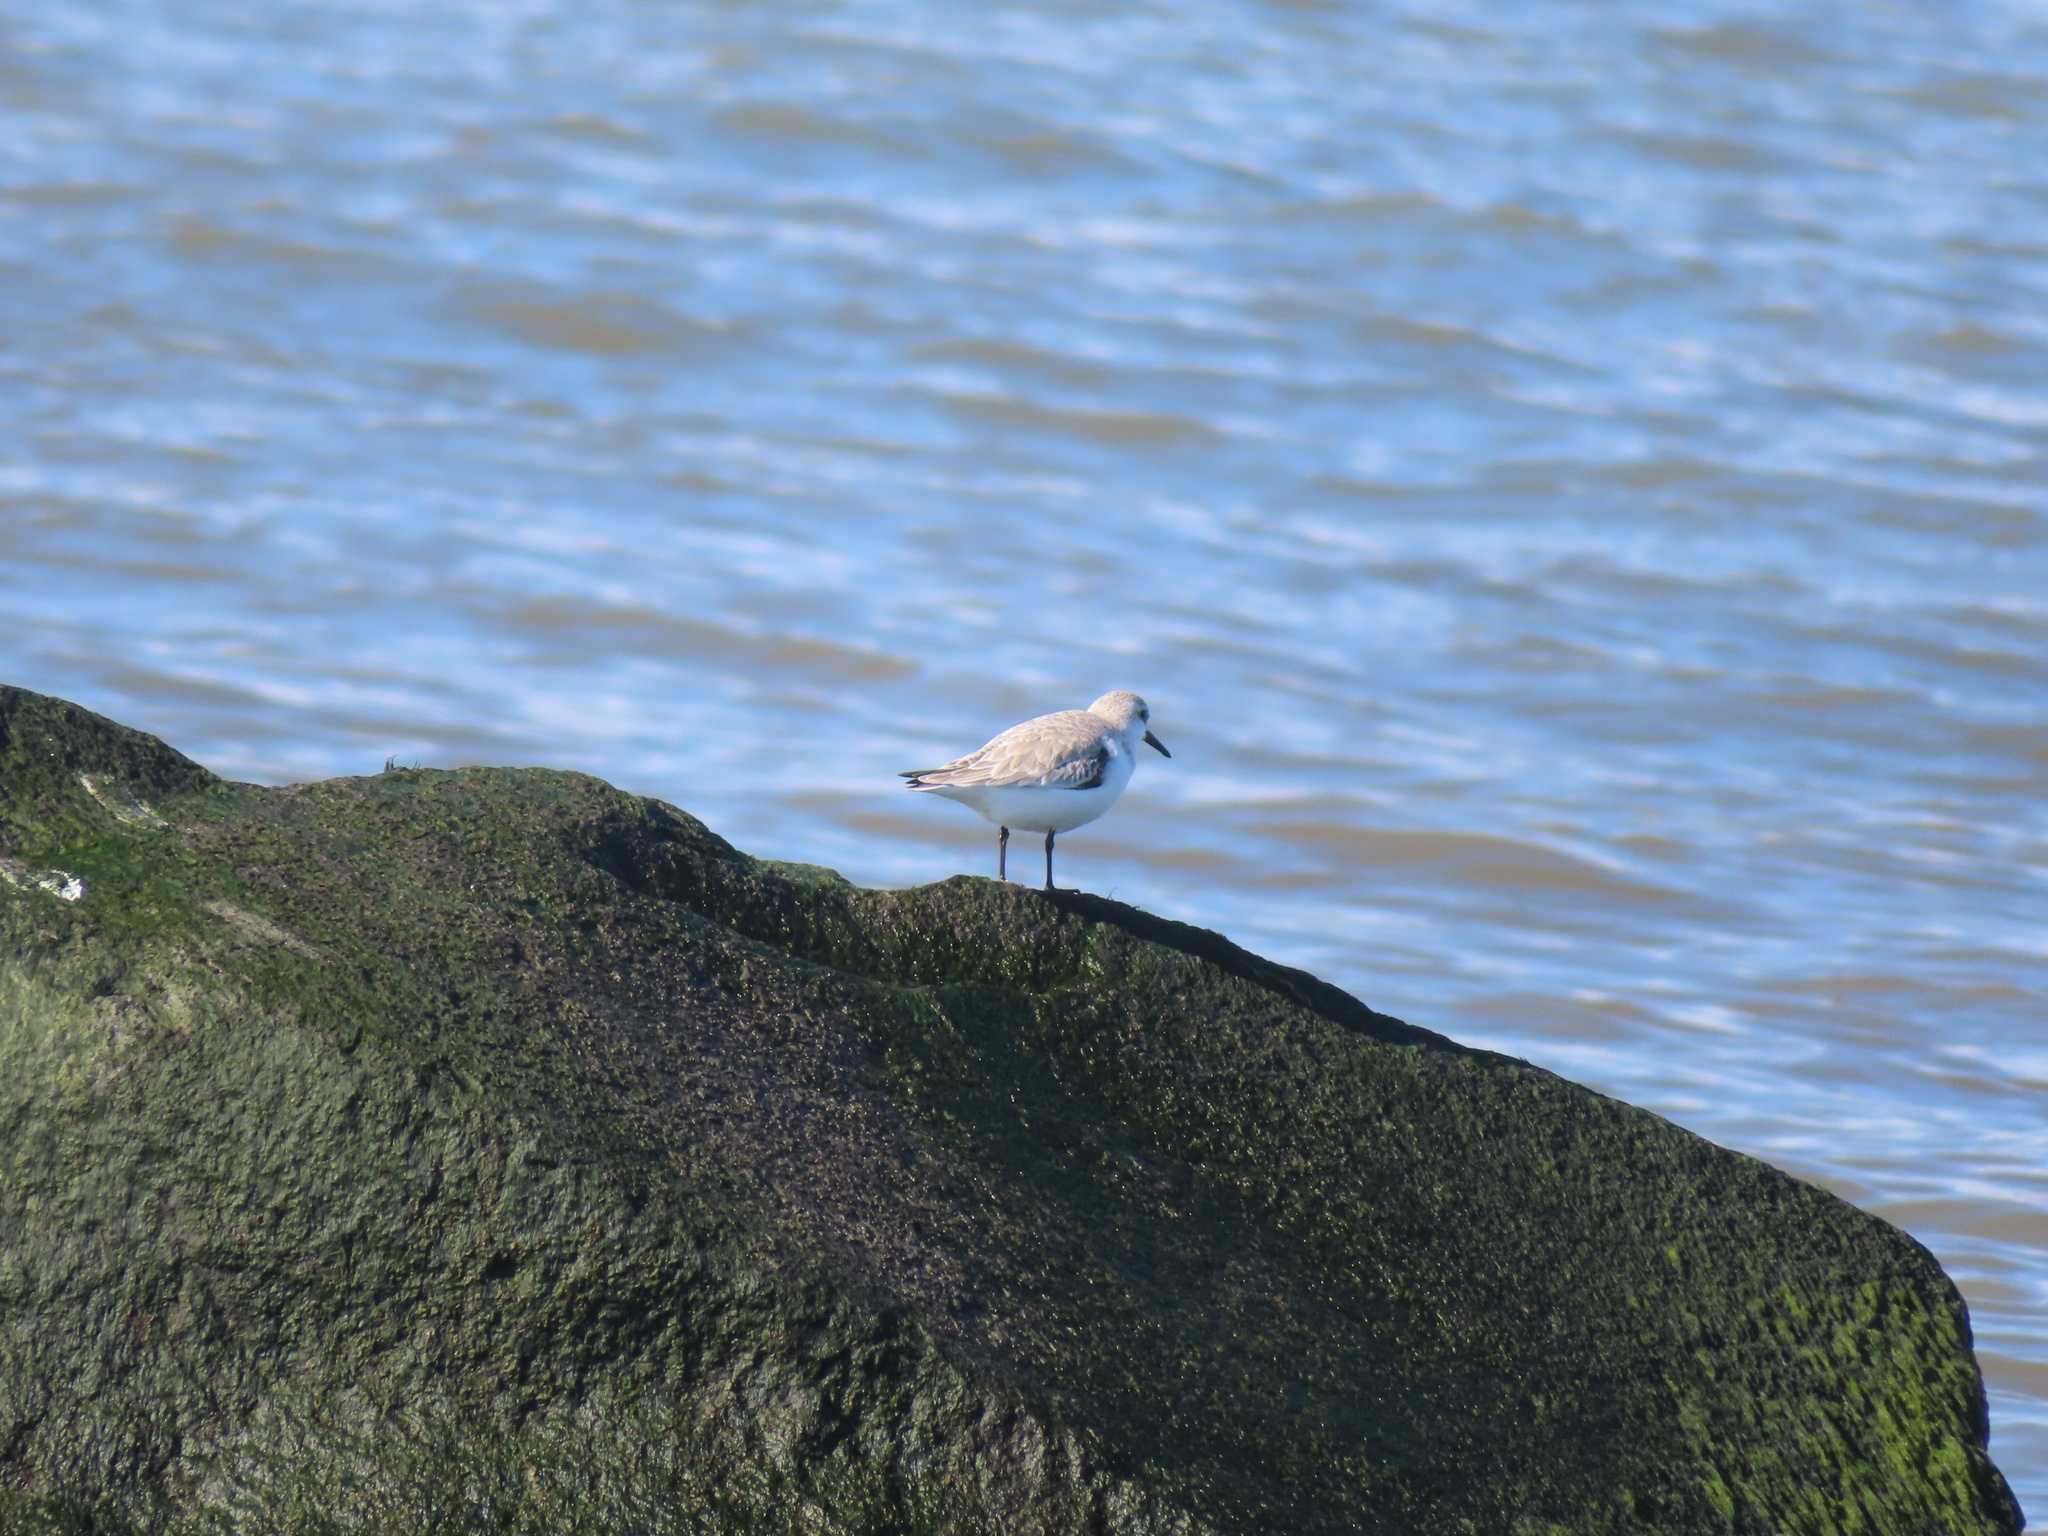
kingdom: Animalia
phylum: Chordata
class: Aves
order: Charadriiformes
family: Scolopacidae
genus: Calidris
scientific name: Calidris alba
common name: Sanderling
